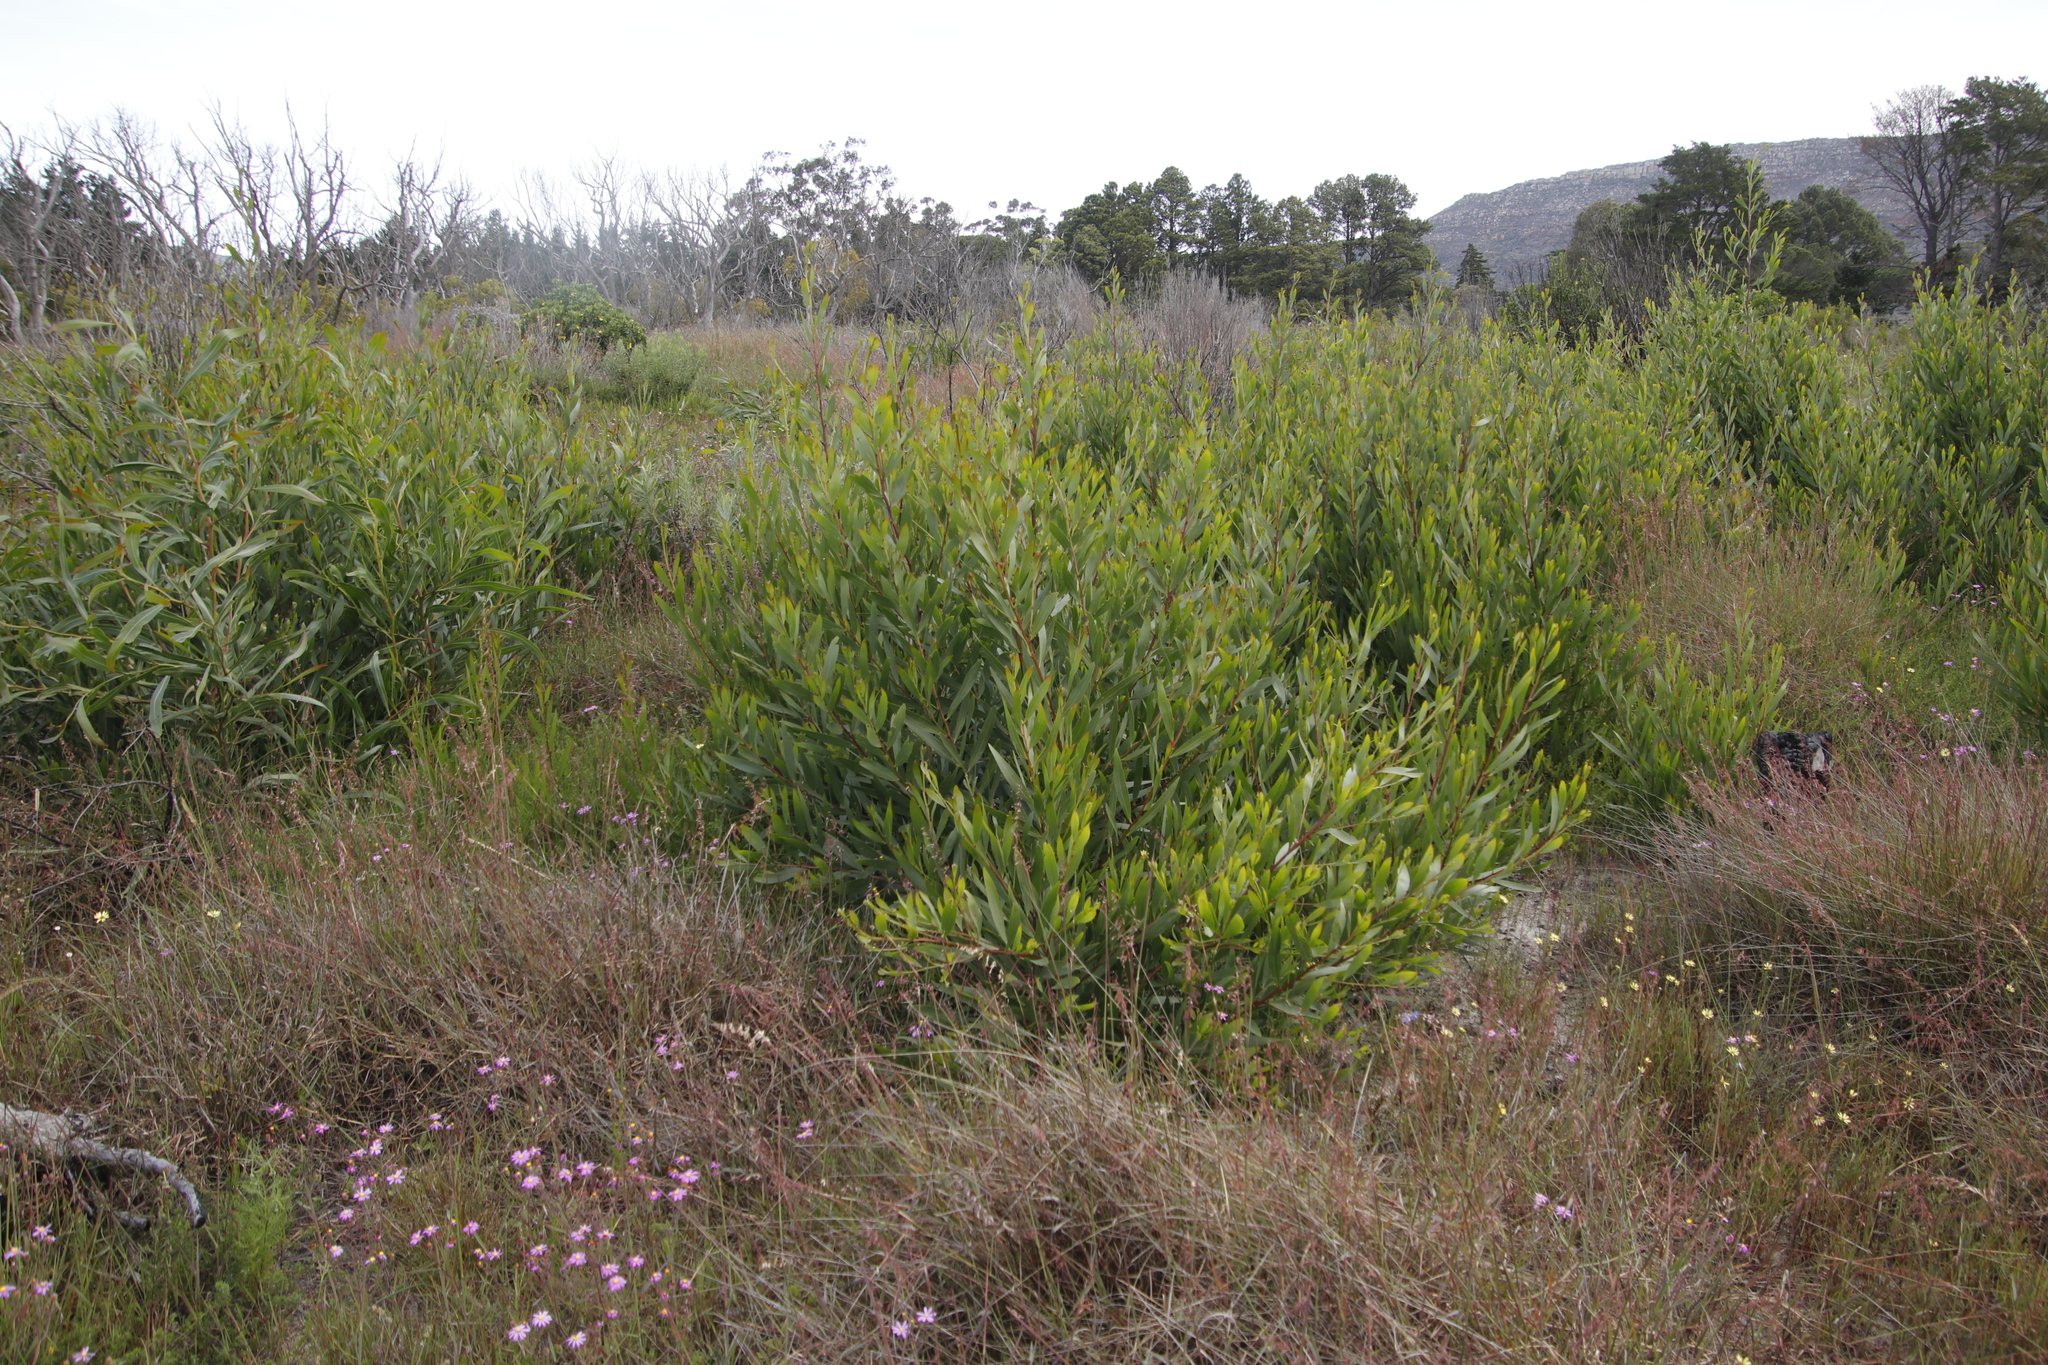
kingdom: Plantae
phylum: Tracheophyta
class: Magnoliopsida
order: Fabales
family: Fabaceae
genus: Acacia
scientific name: Acacia longifolia
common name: Sydney golden wattle
